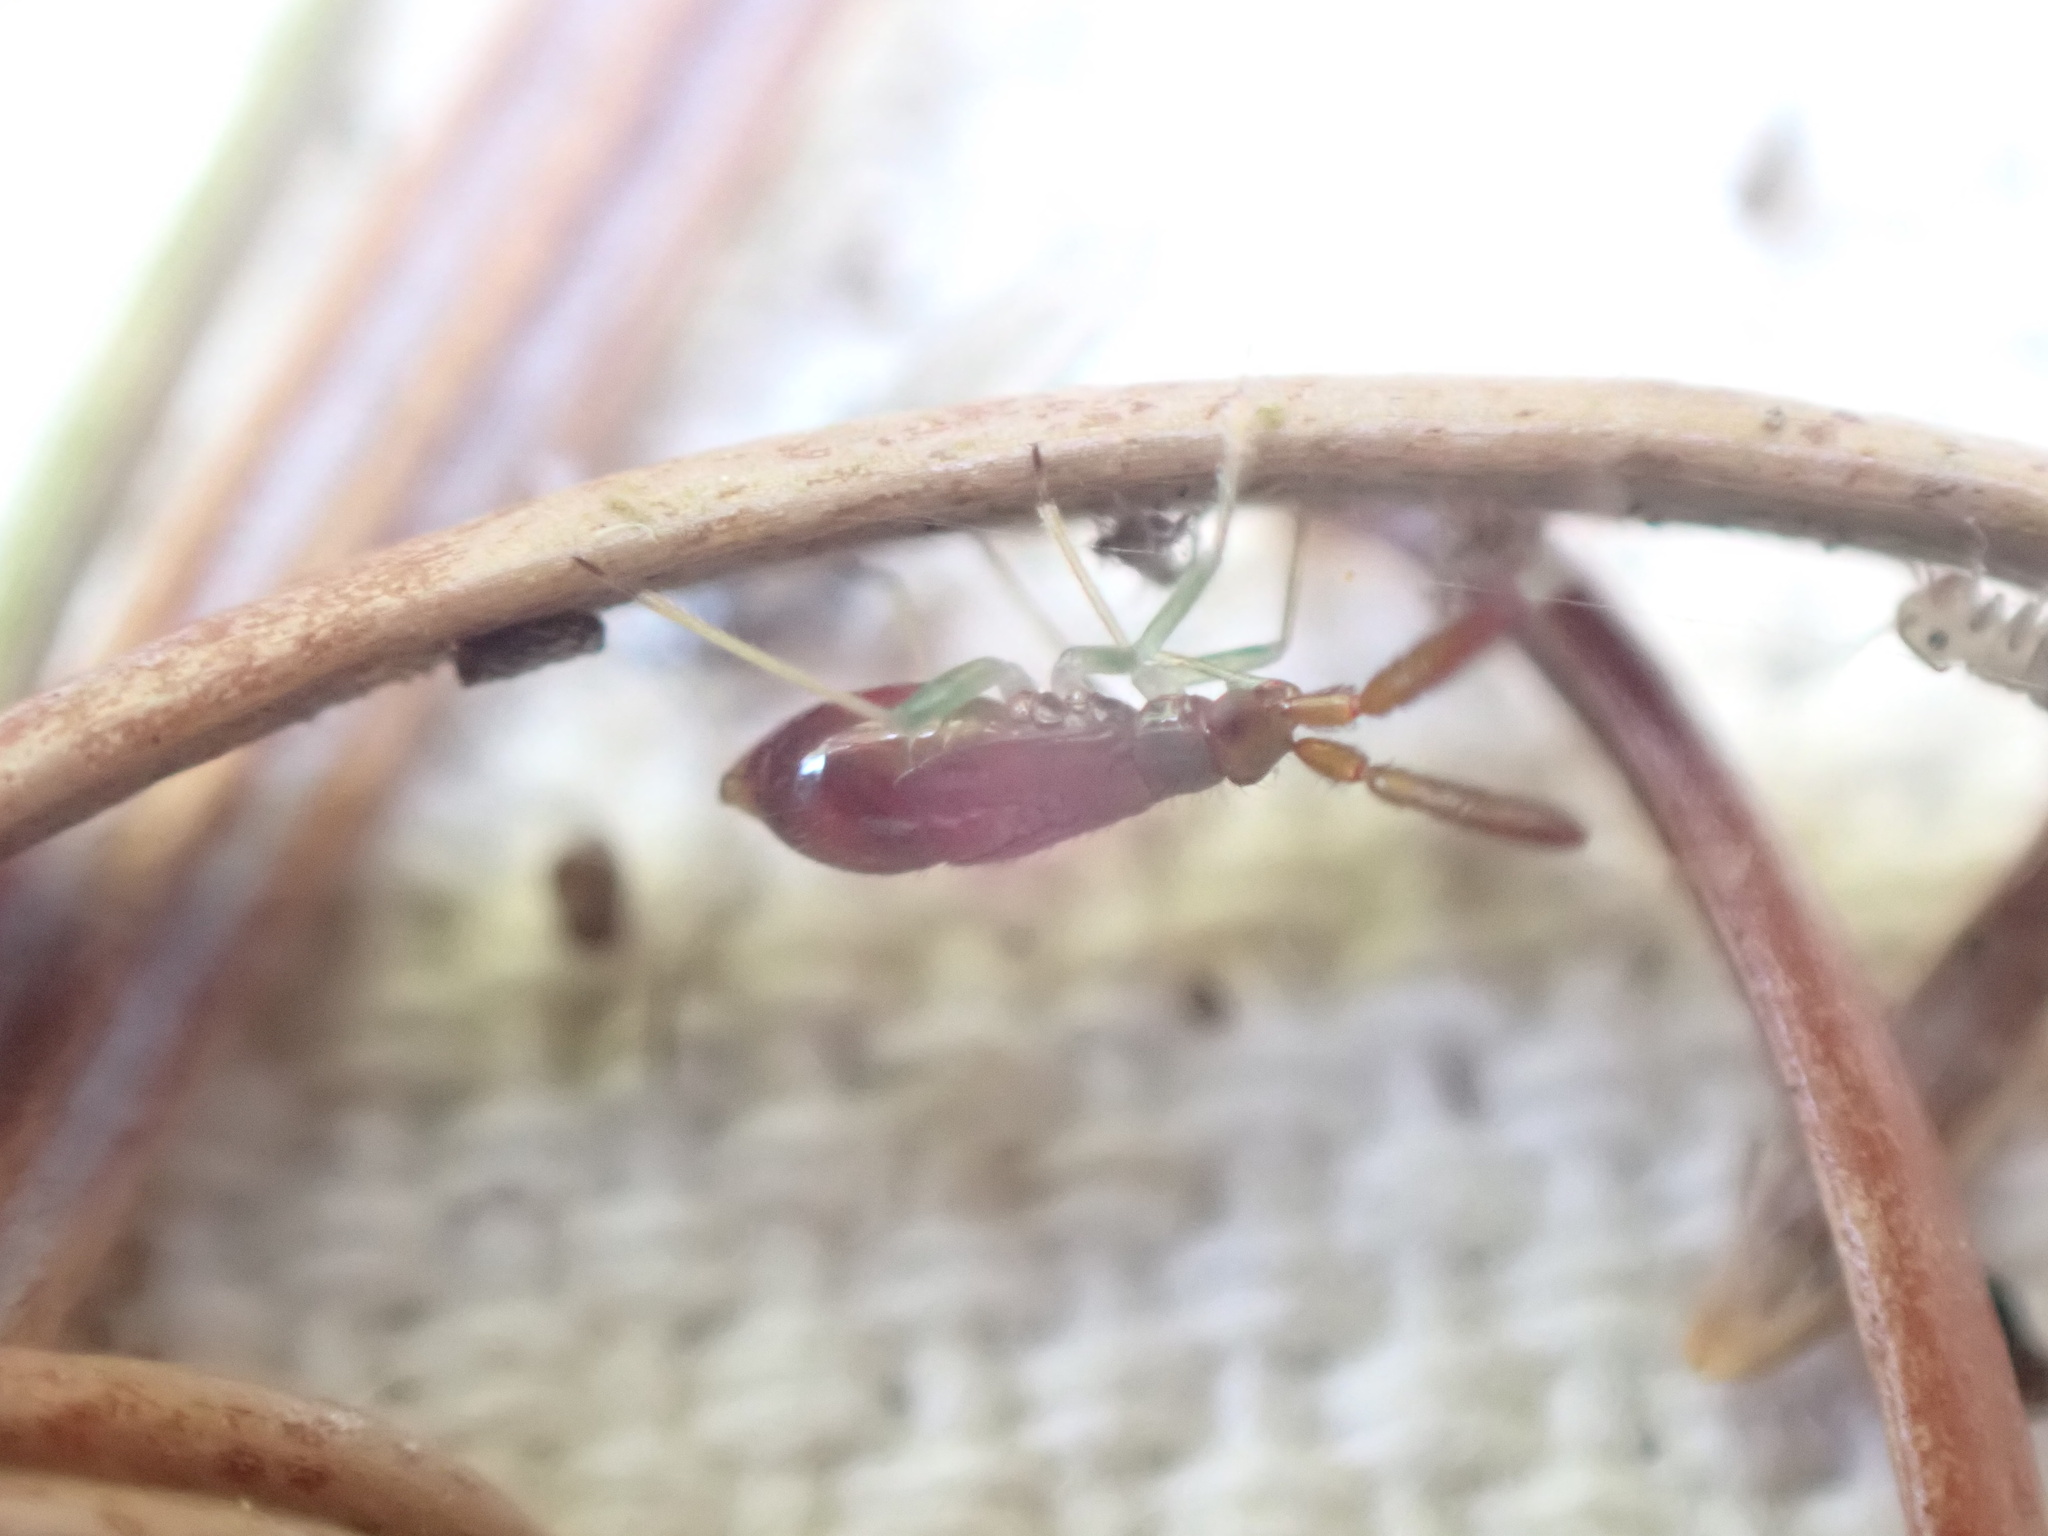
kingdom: Animalia
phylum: Arthropoda
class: Insecta
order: Hemiptera
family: Miridae
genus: Heterotoma
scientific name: Heterotoma planicornis
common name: Plant bug
